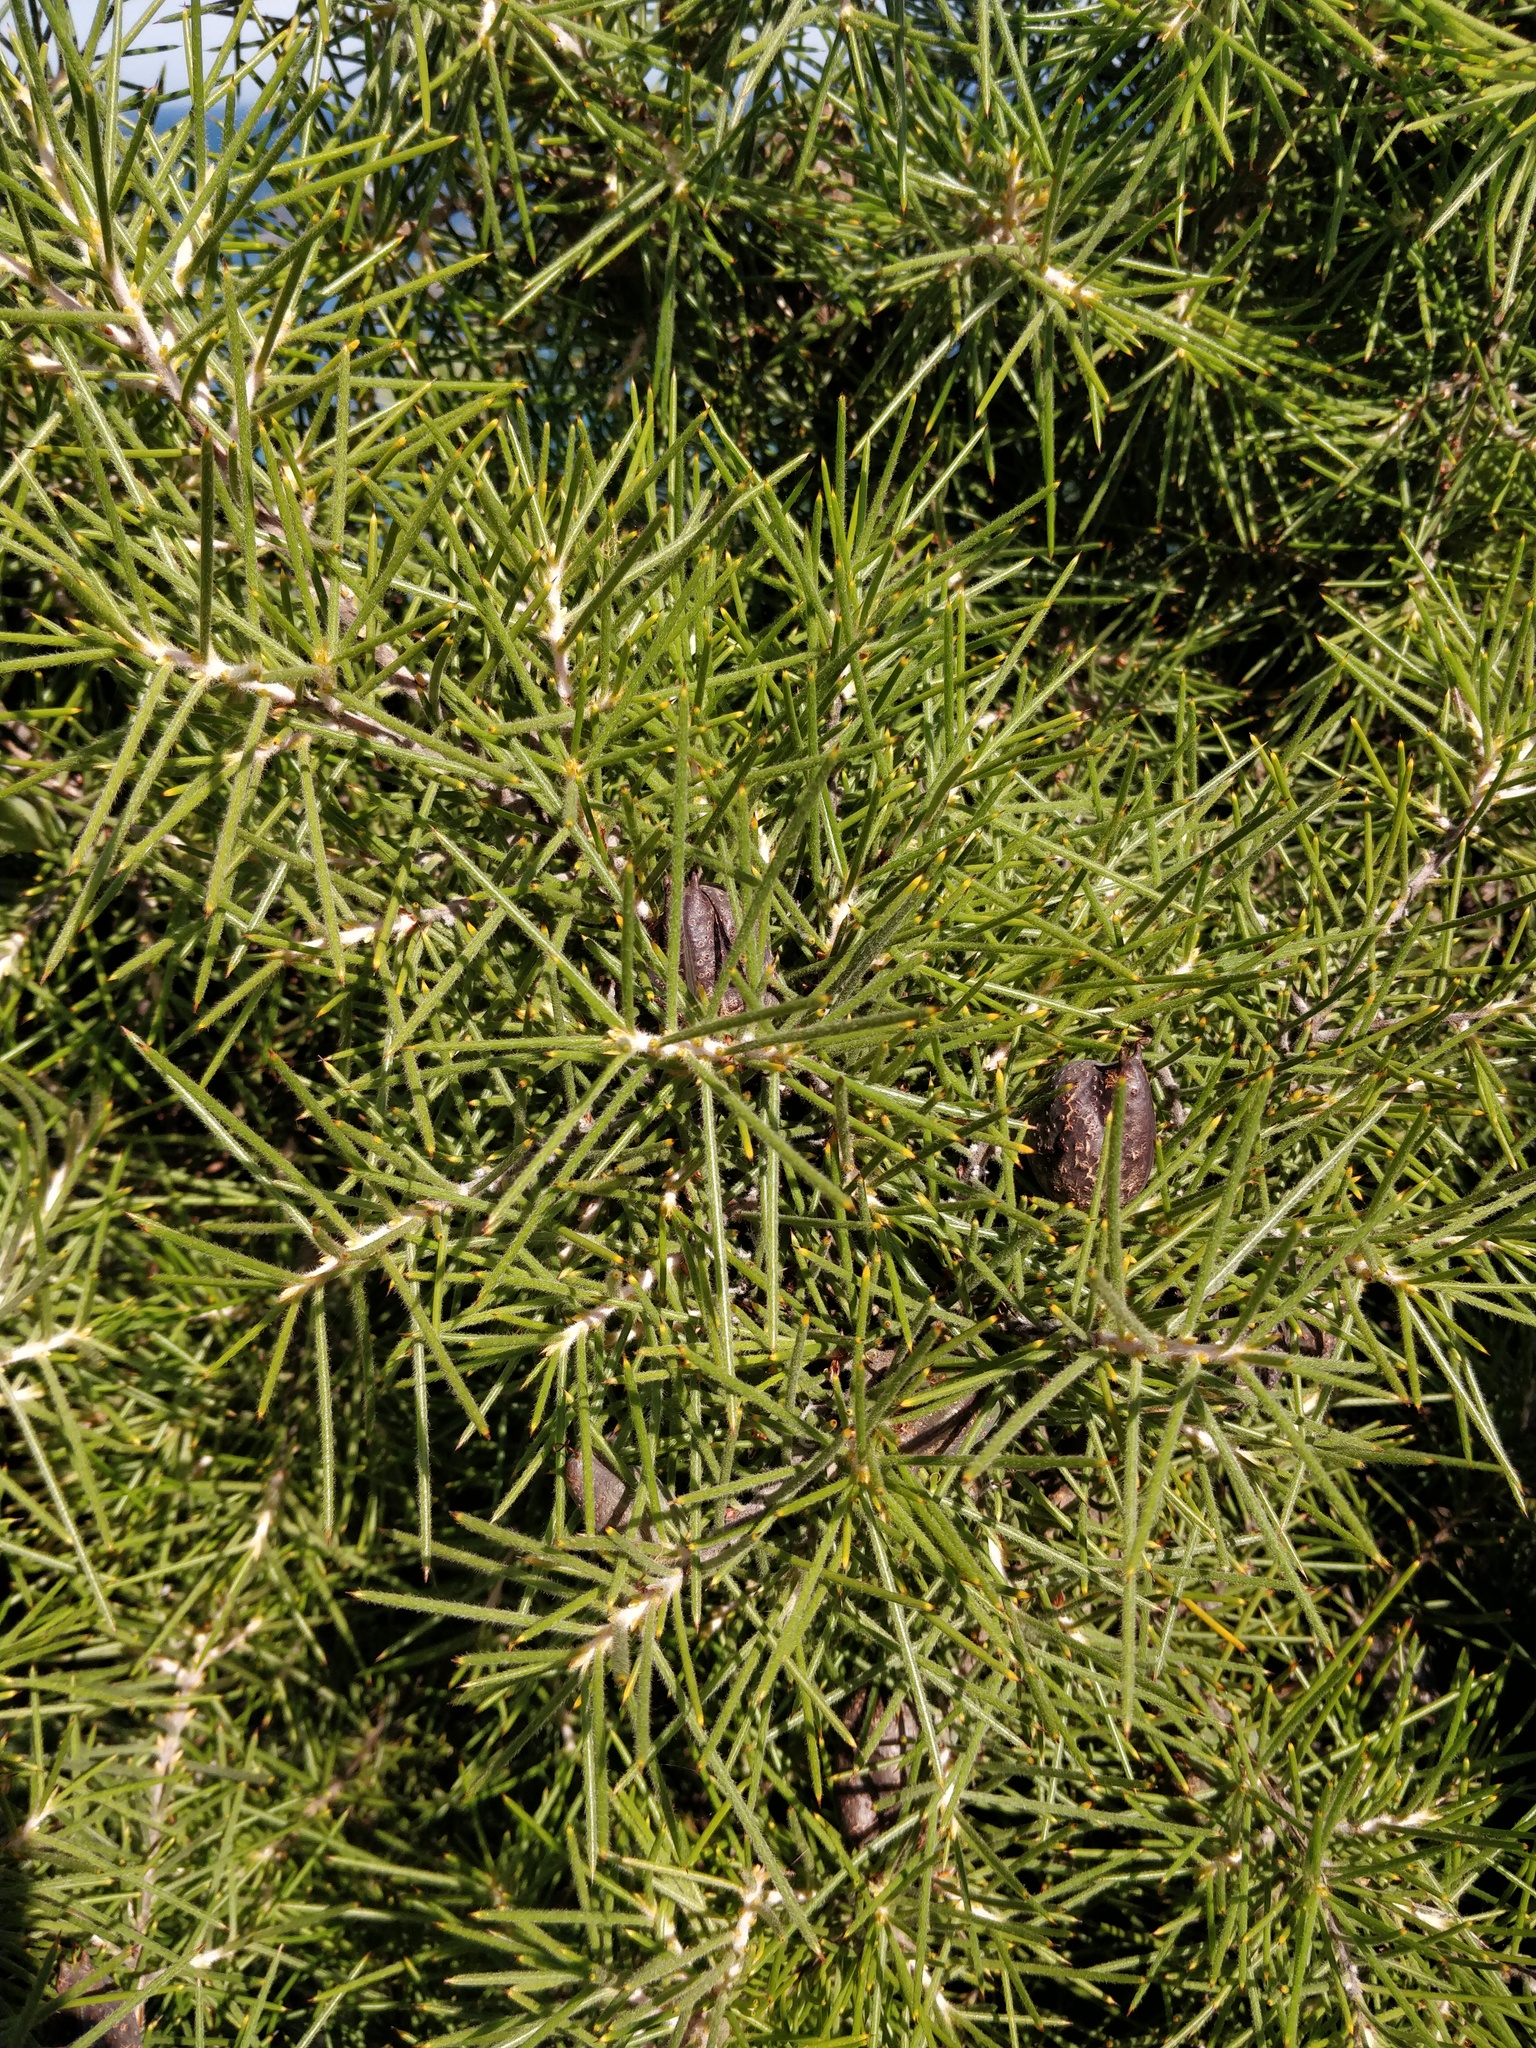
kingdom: Plantae
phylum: Tracheophyta
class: Magnoliopsida
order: Proteales
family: Proteaceae
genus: Hakea
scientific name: Hakea gibbosa
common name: Rock hakea
